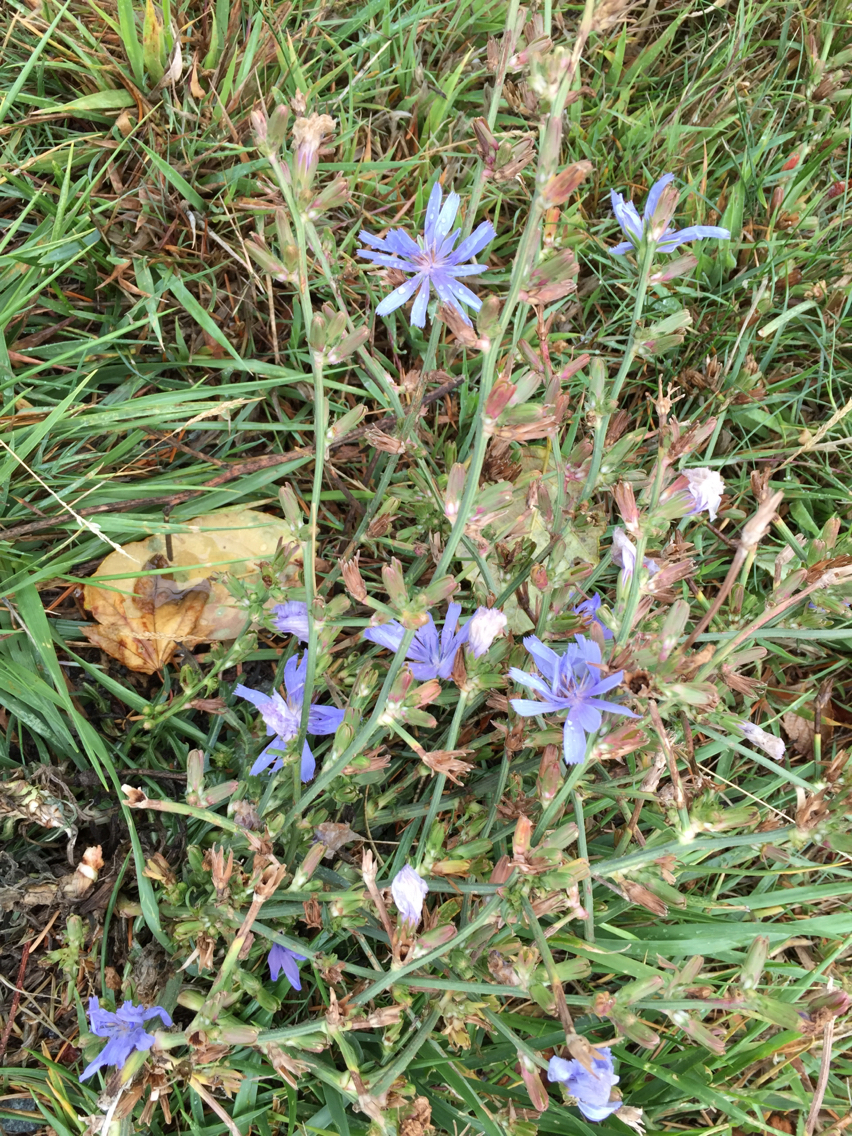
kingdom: Plantae
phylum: Tracheophyta
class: Magnoliopsida
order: Asterales
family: Asteraceae
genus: Cichorium
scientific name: Cichorium intybus
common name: Chicory
